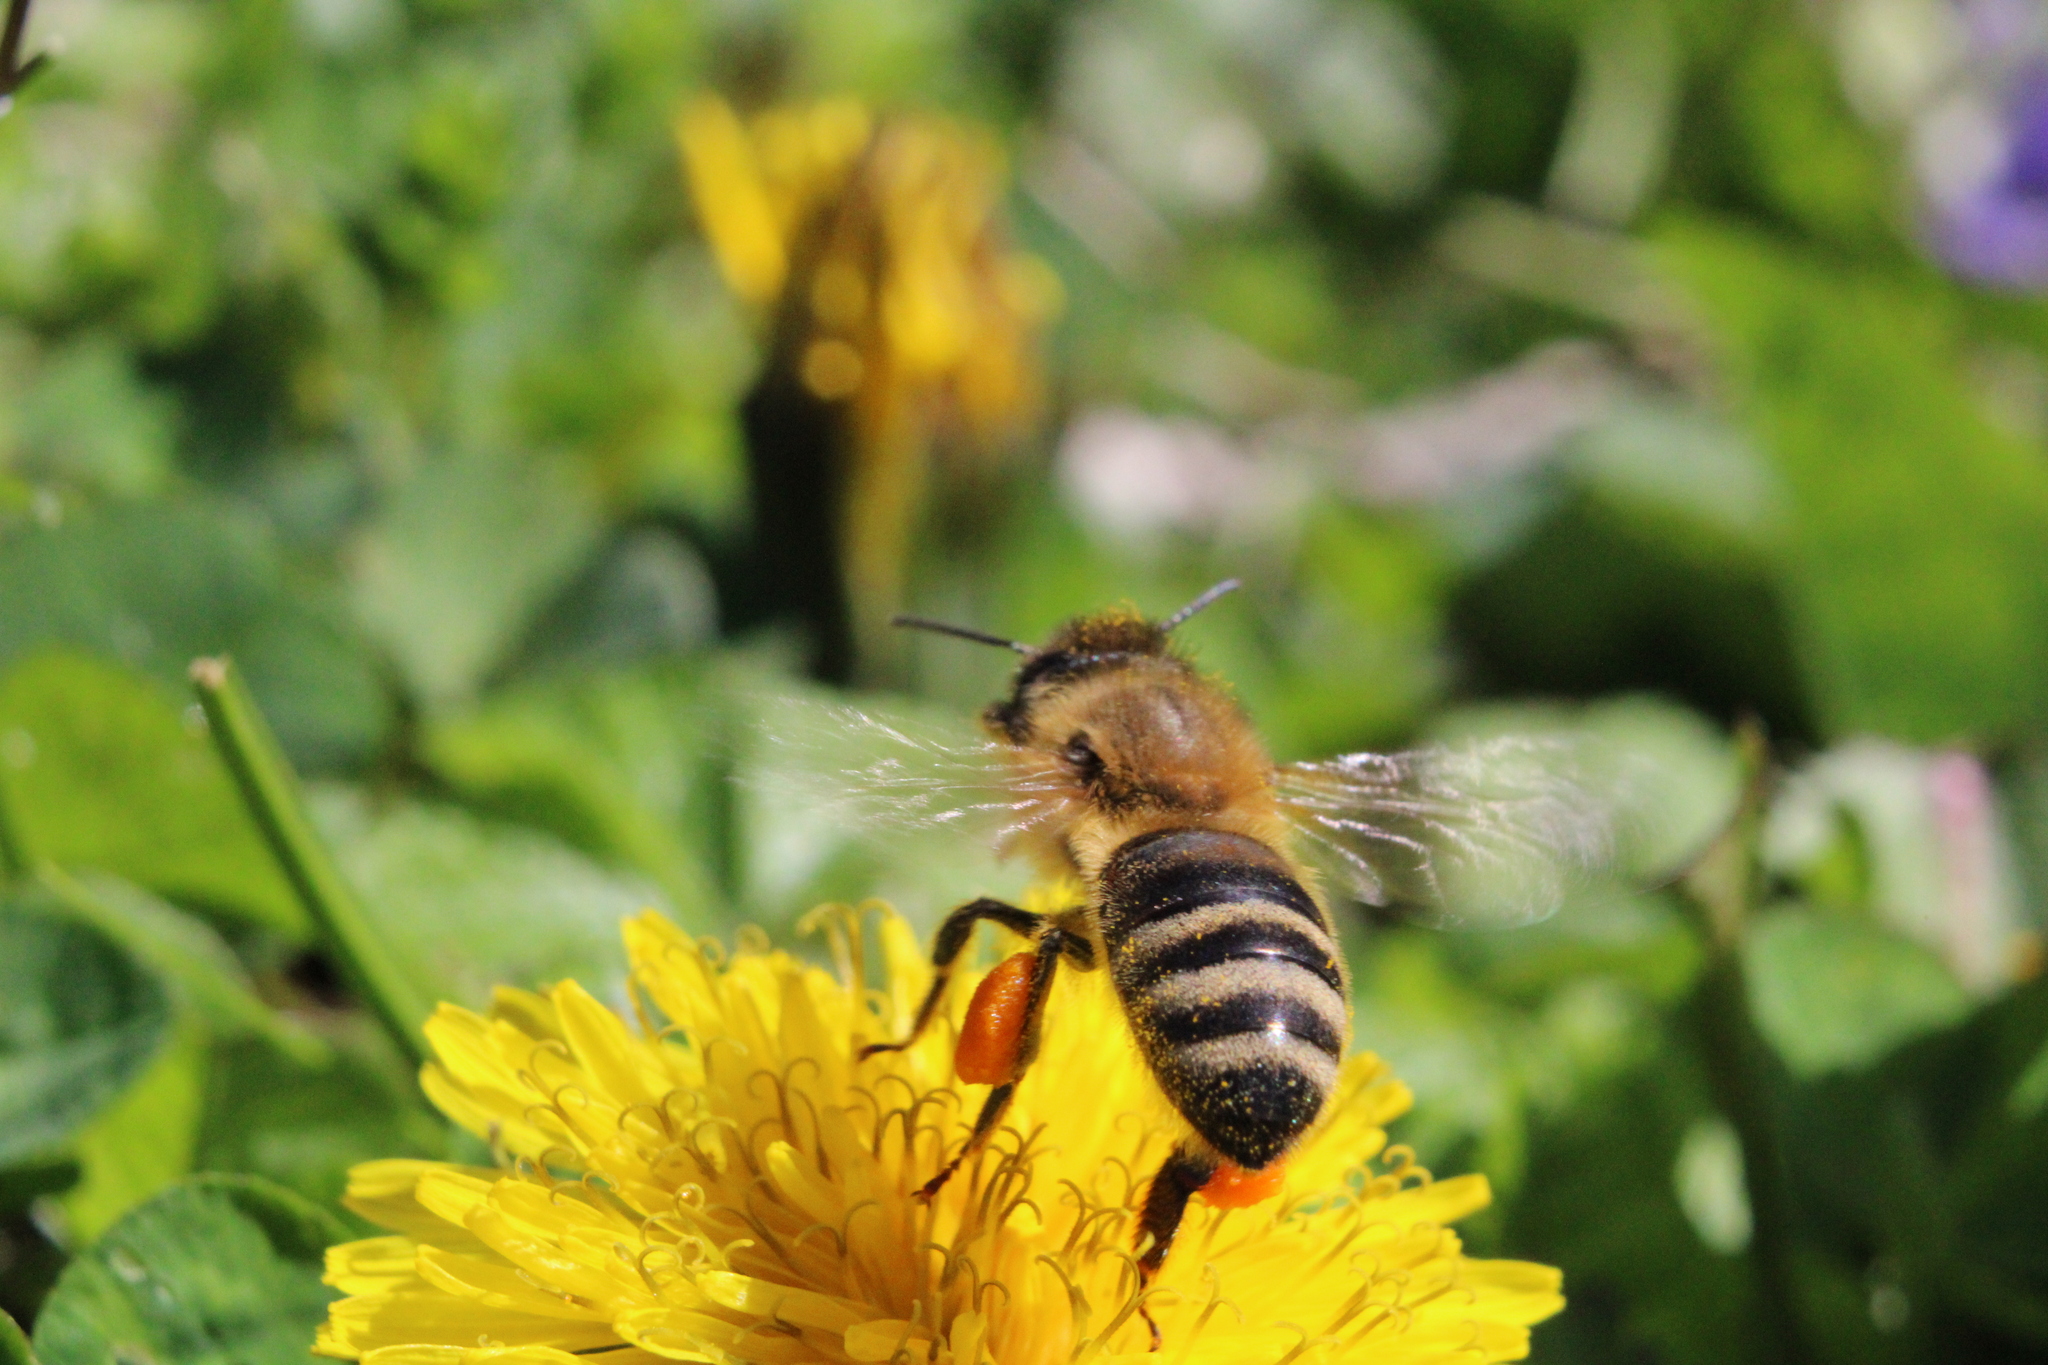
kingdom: Animalia
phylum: Arthropoda
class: Insecta
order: Hymenoptera
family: Apidae
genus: Apis
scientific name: Apis mellifera
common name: Honey bee
